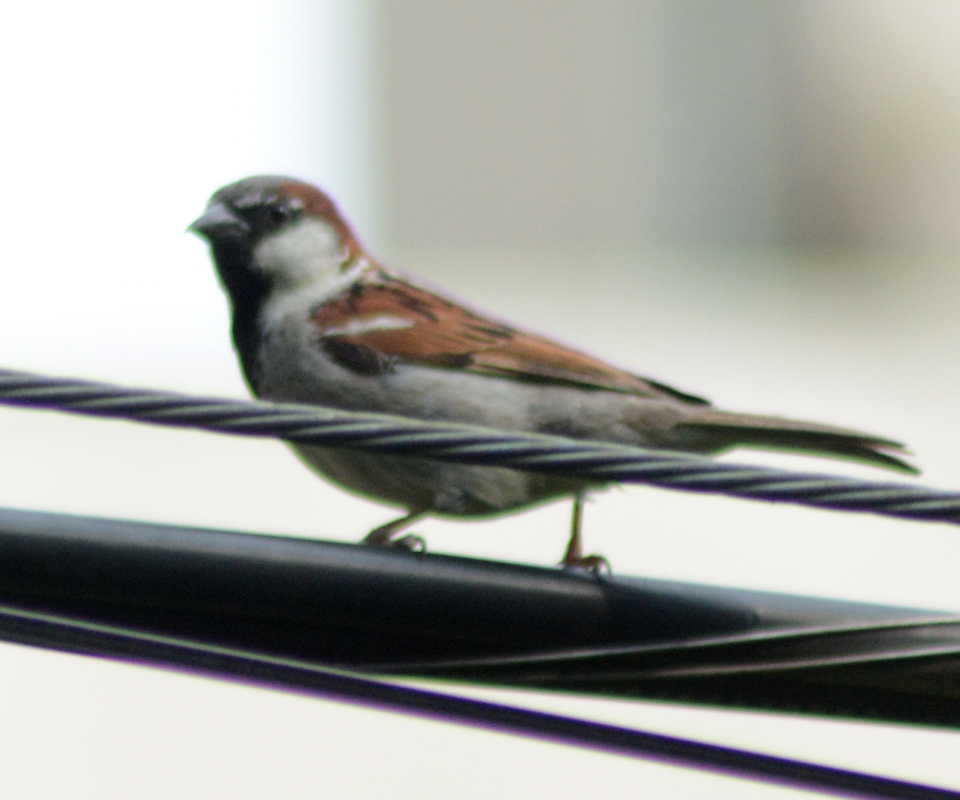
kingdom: Animalia
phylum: Chordata
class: Aves
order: Passeriformes
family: Passeridae
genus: Passer
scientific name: Passer domesticus
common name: House sparrow
